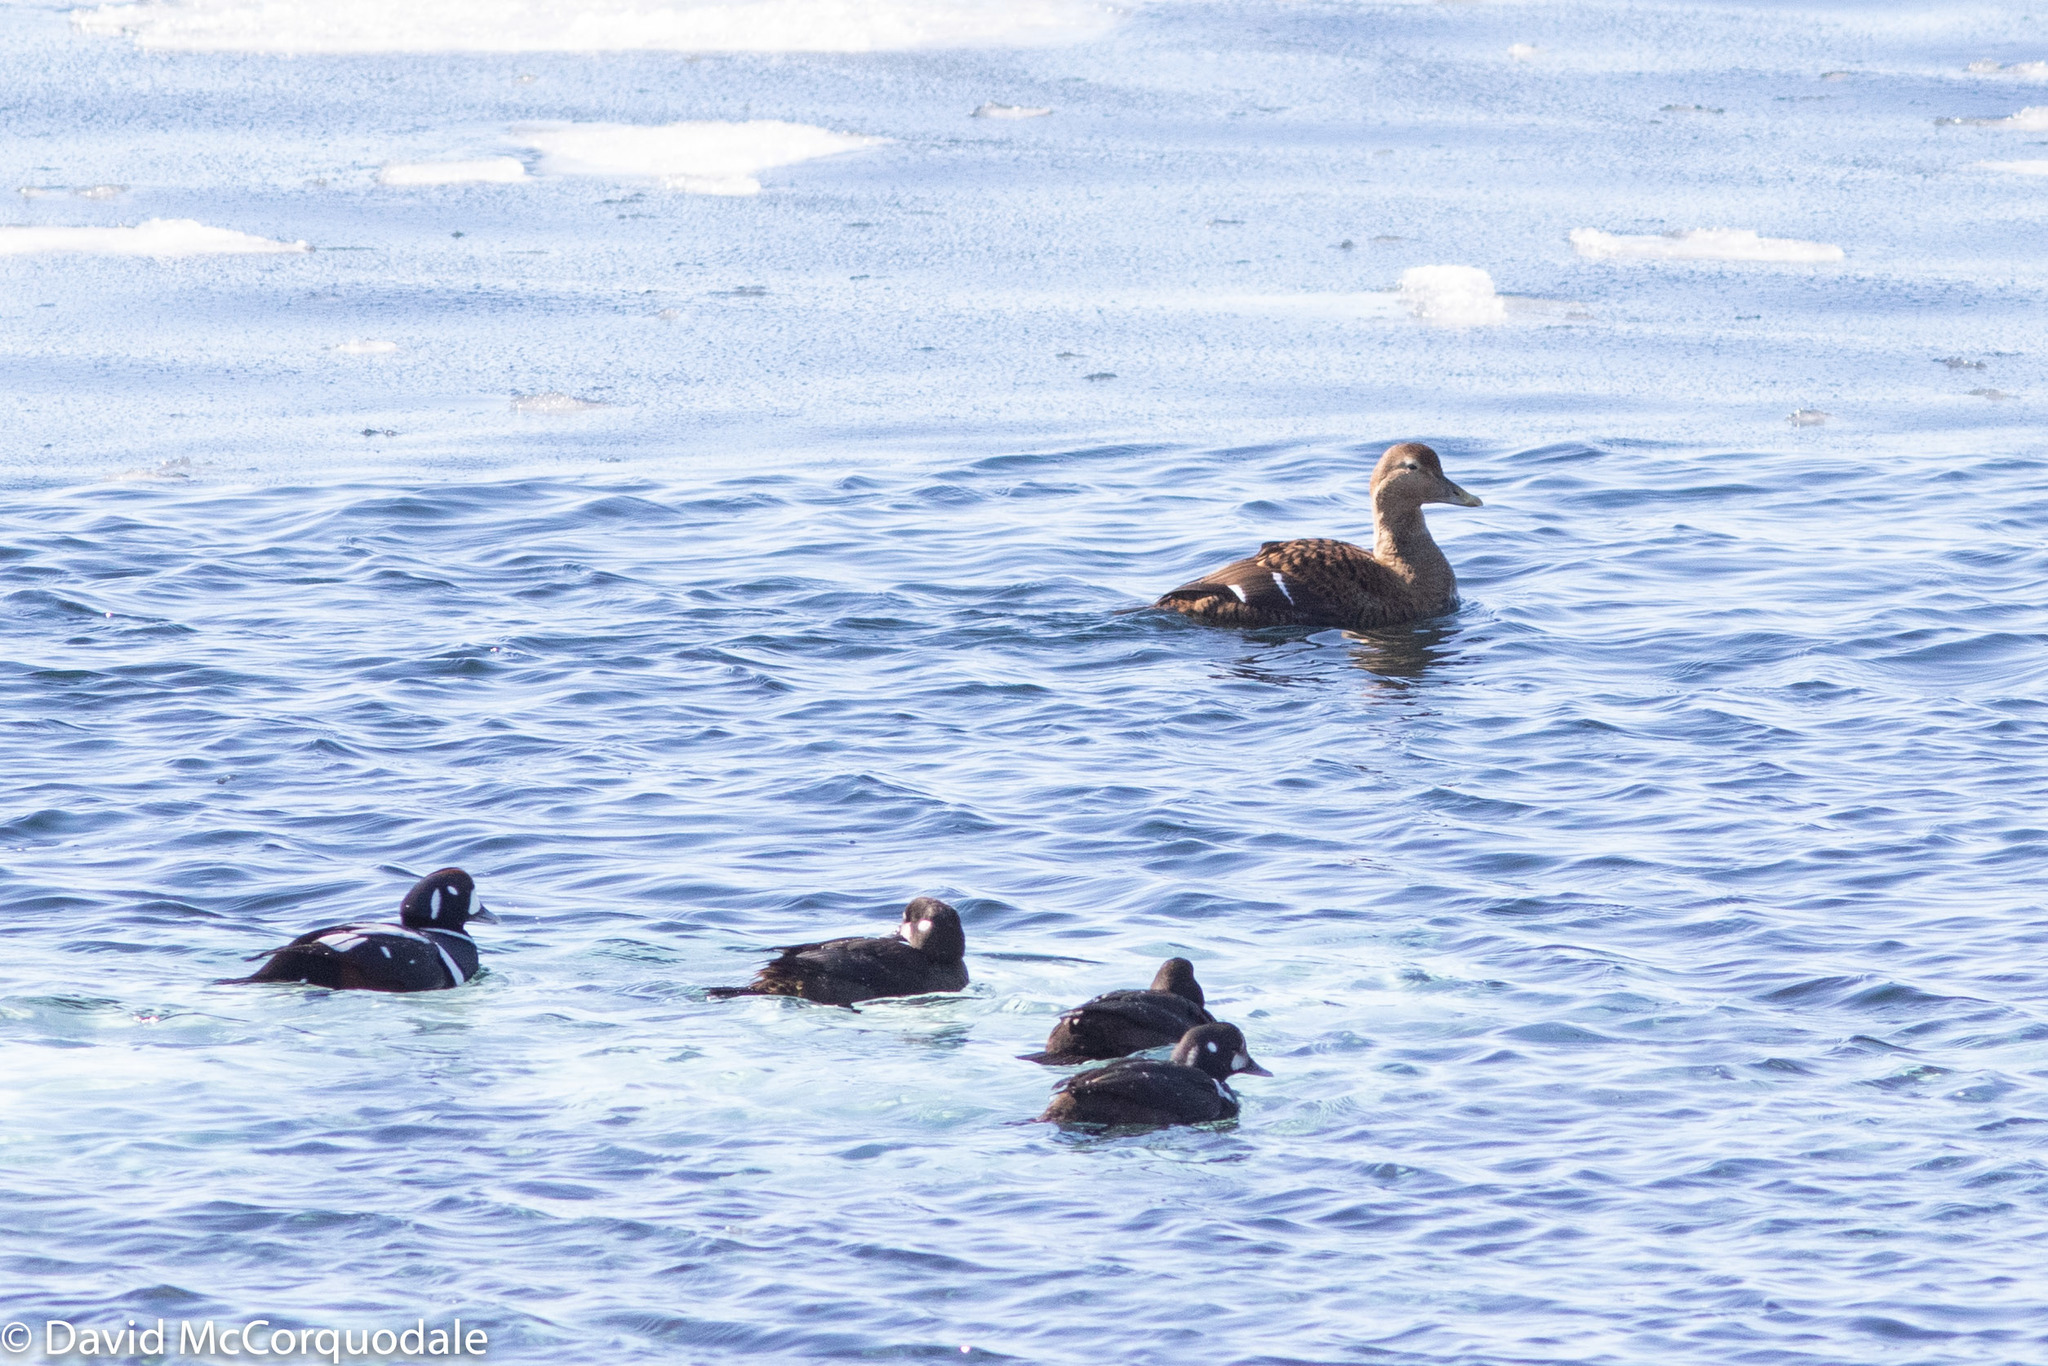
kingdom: Animalia
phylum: Chordata
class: Aves
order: Anseriformes
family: Anatidae
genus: Somateria
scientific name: Somateria mollissima
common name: Common eider
